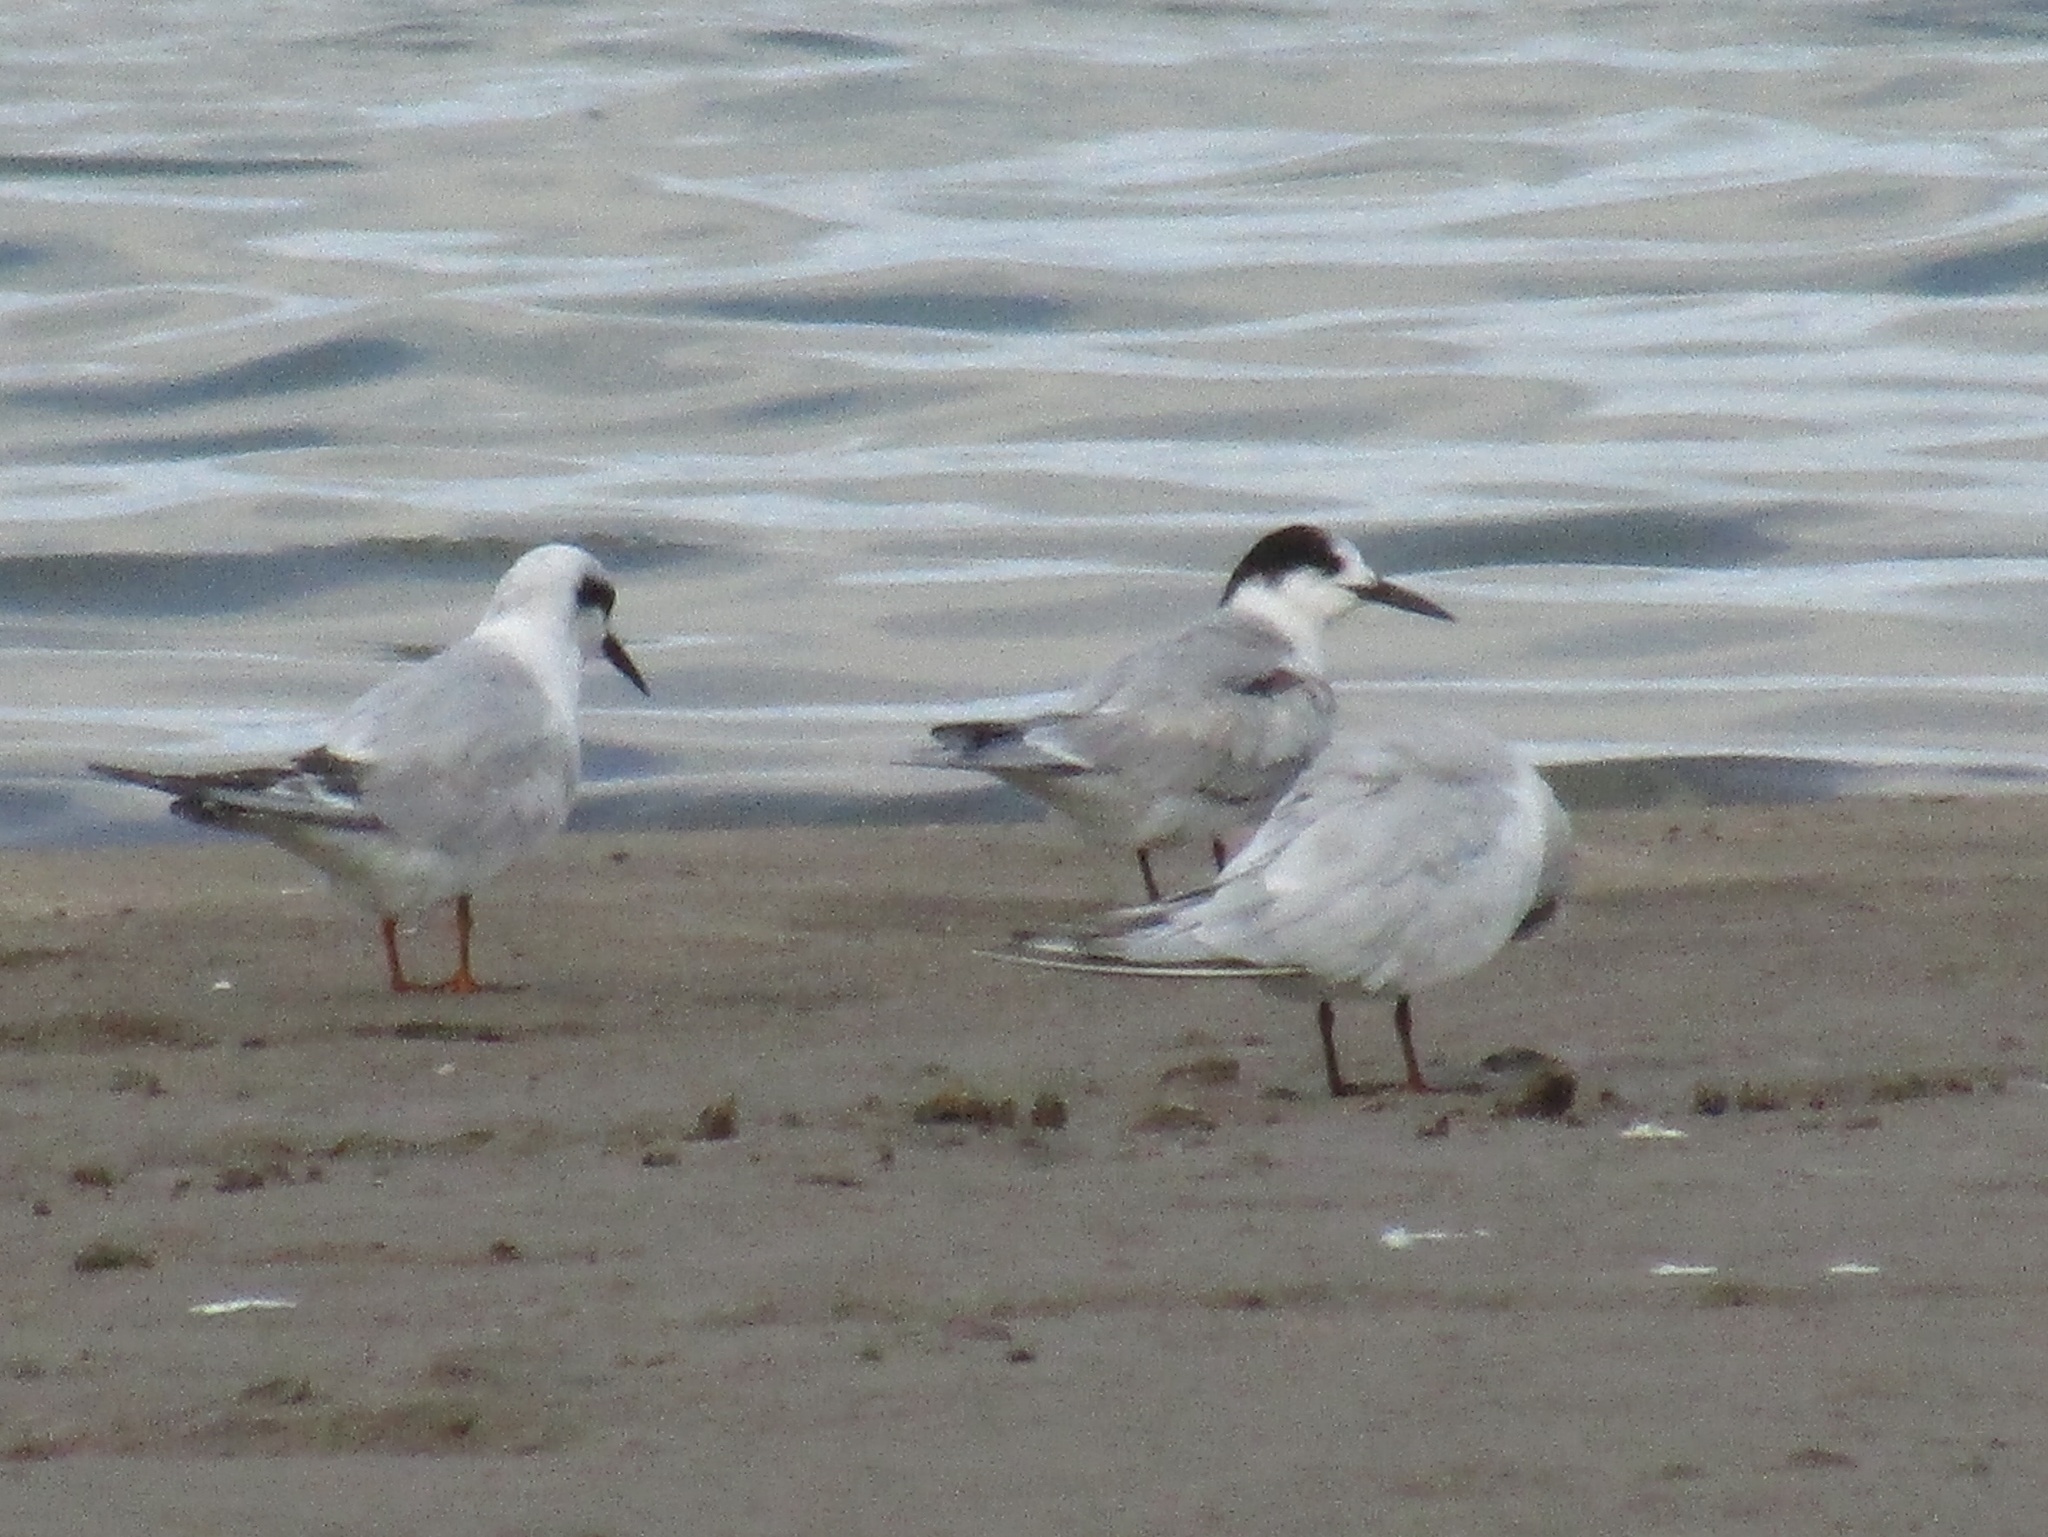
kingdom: Animalia
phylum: Chordata
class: Aves
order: Charadriiformes
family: Laridae
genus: Sterna
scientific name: Sterna hirundo
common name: Common tern
